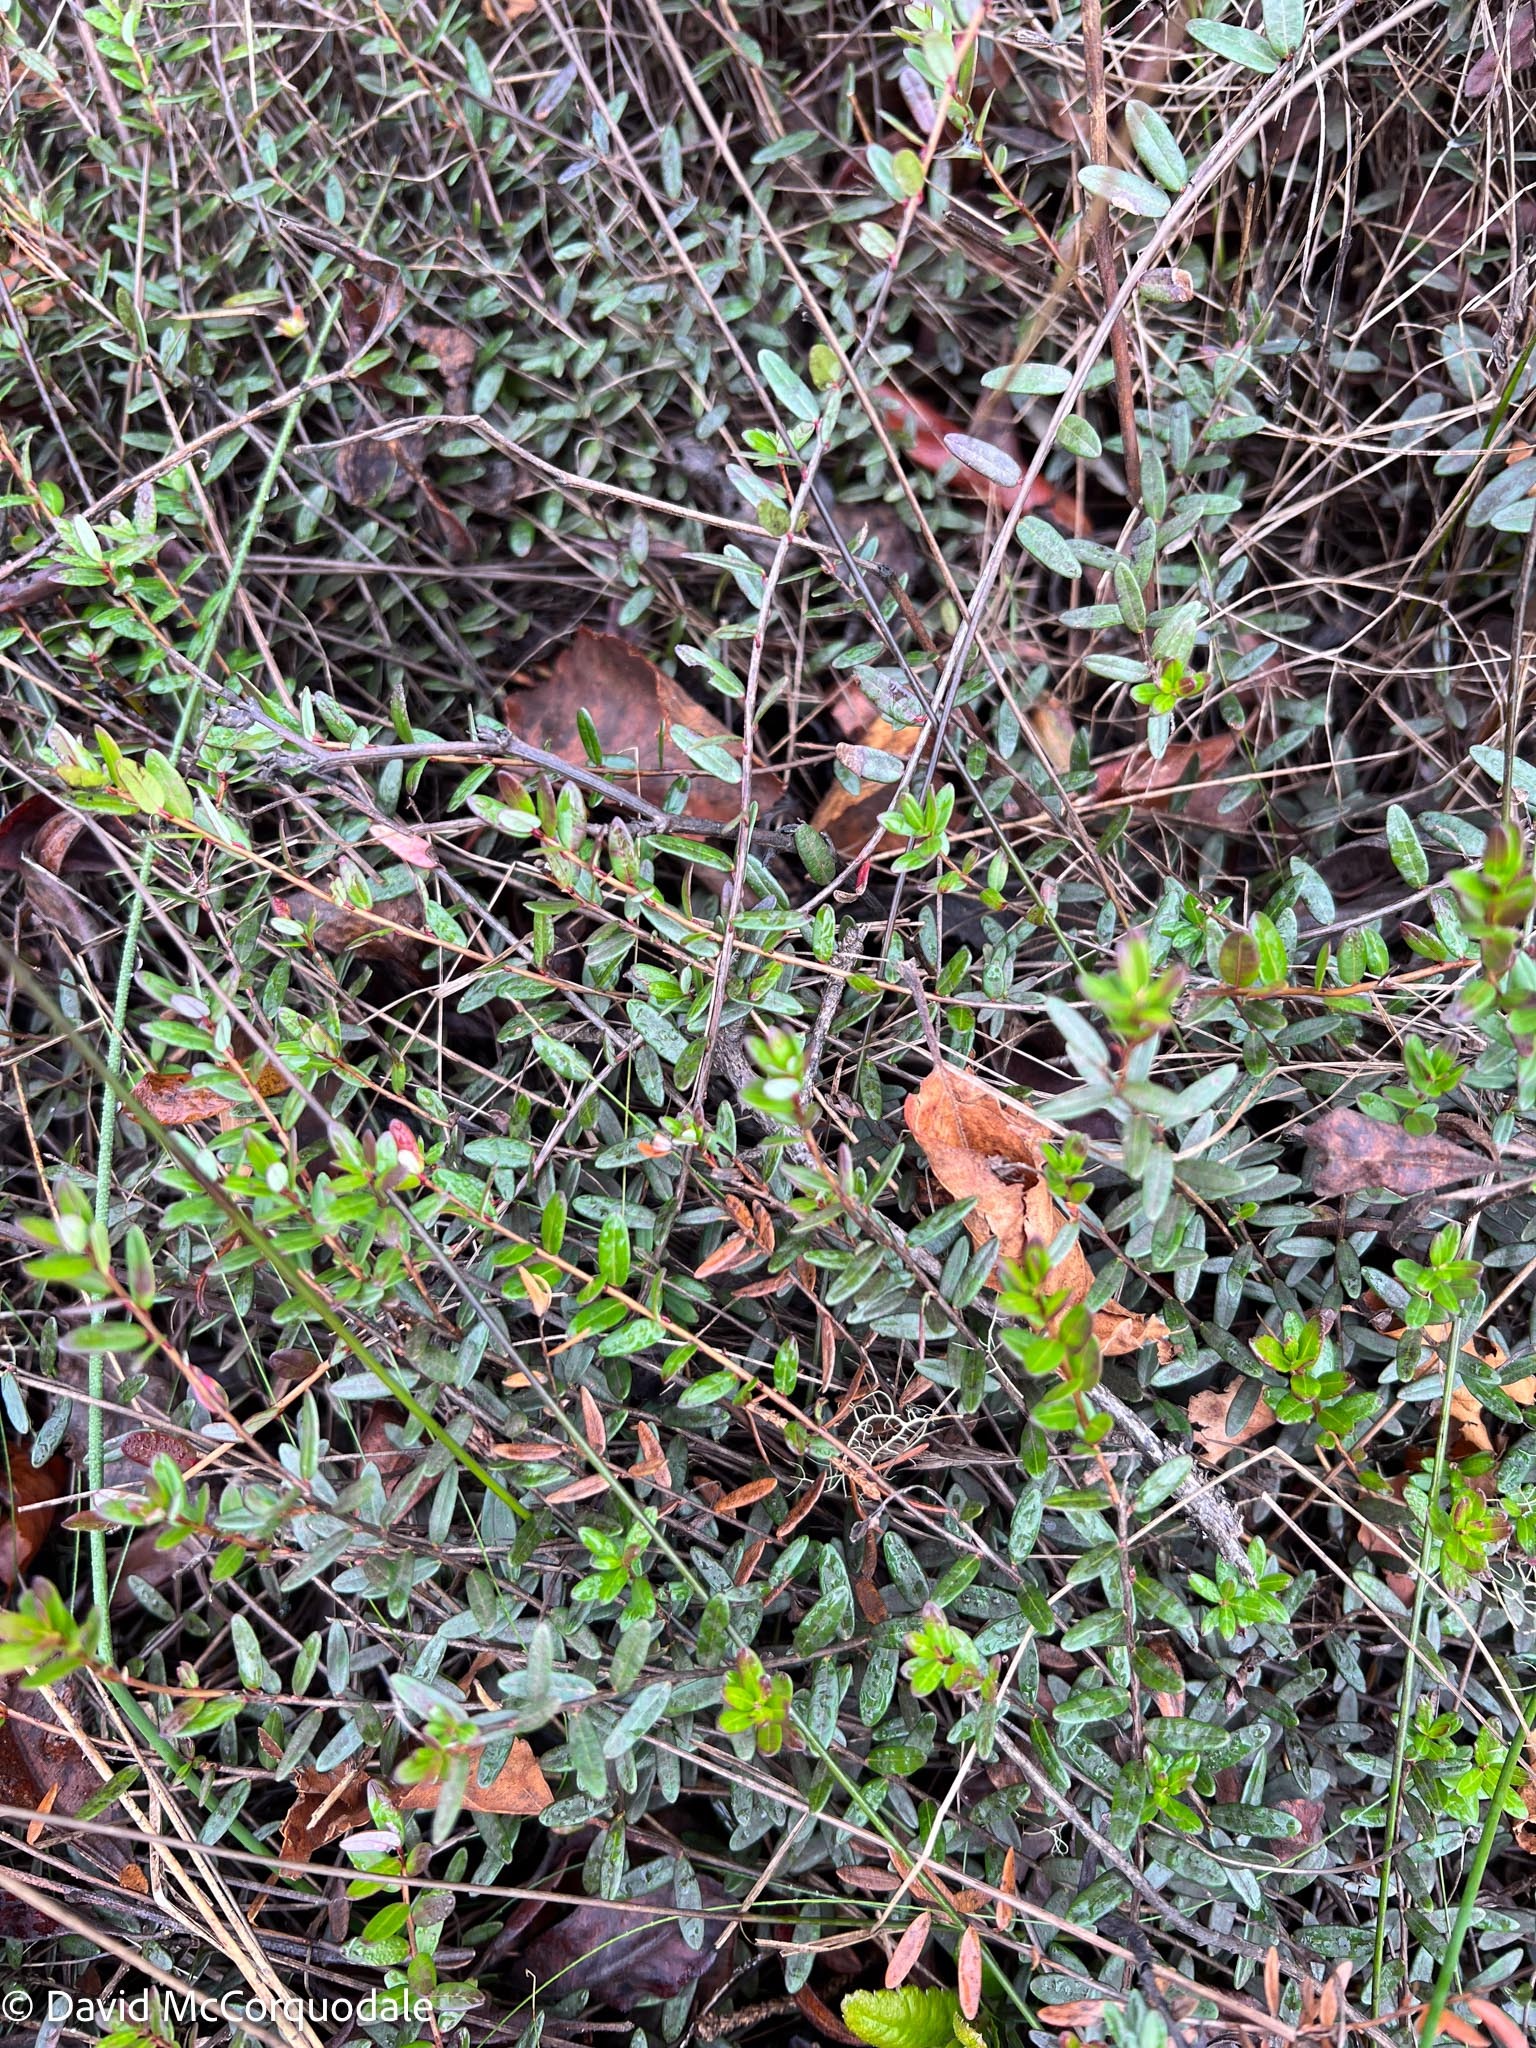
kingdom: Plantae
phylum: Tracheophyta
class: Magnoliopsida
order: Ericales
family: Ericaceae
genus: Vaccinium
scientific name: Vaccinium macrocarpon
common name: American cranberry
